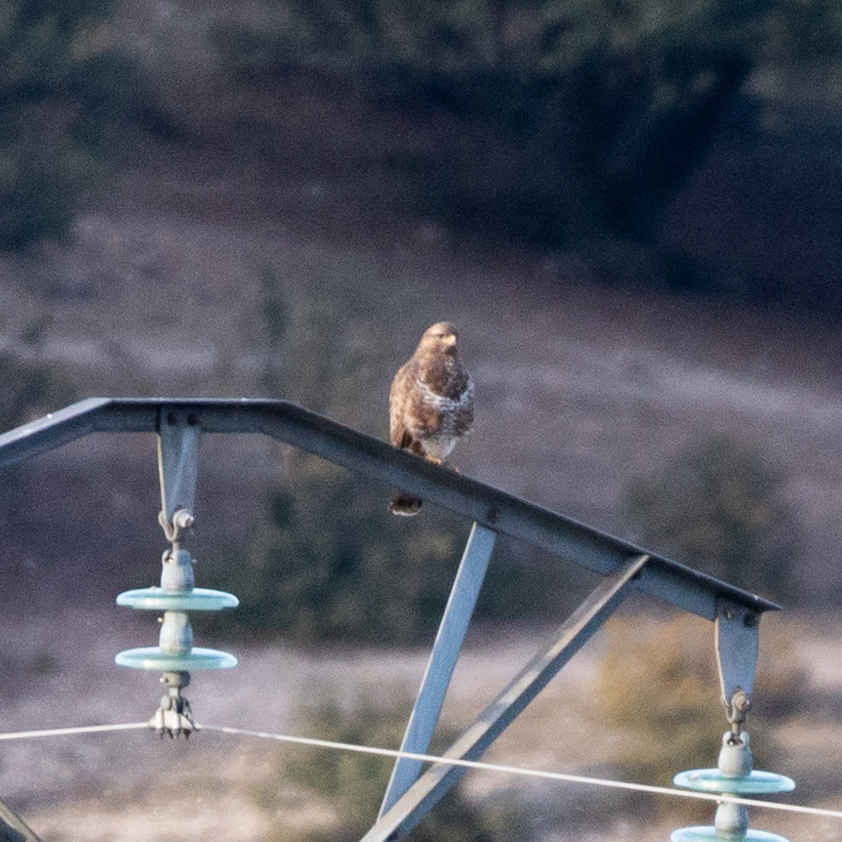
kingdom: Animalia
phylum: Chordata
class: Aves
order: Accipitriformes
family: Accipitridae
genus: Buteo
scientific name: Buteo buteo
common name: Common buzzard
